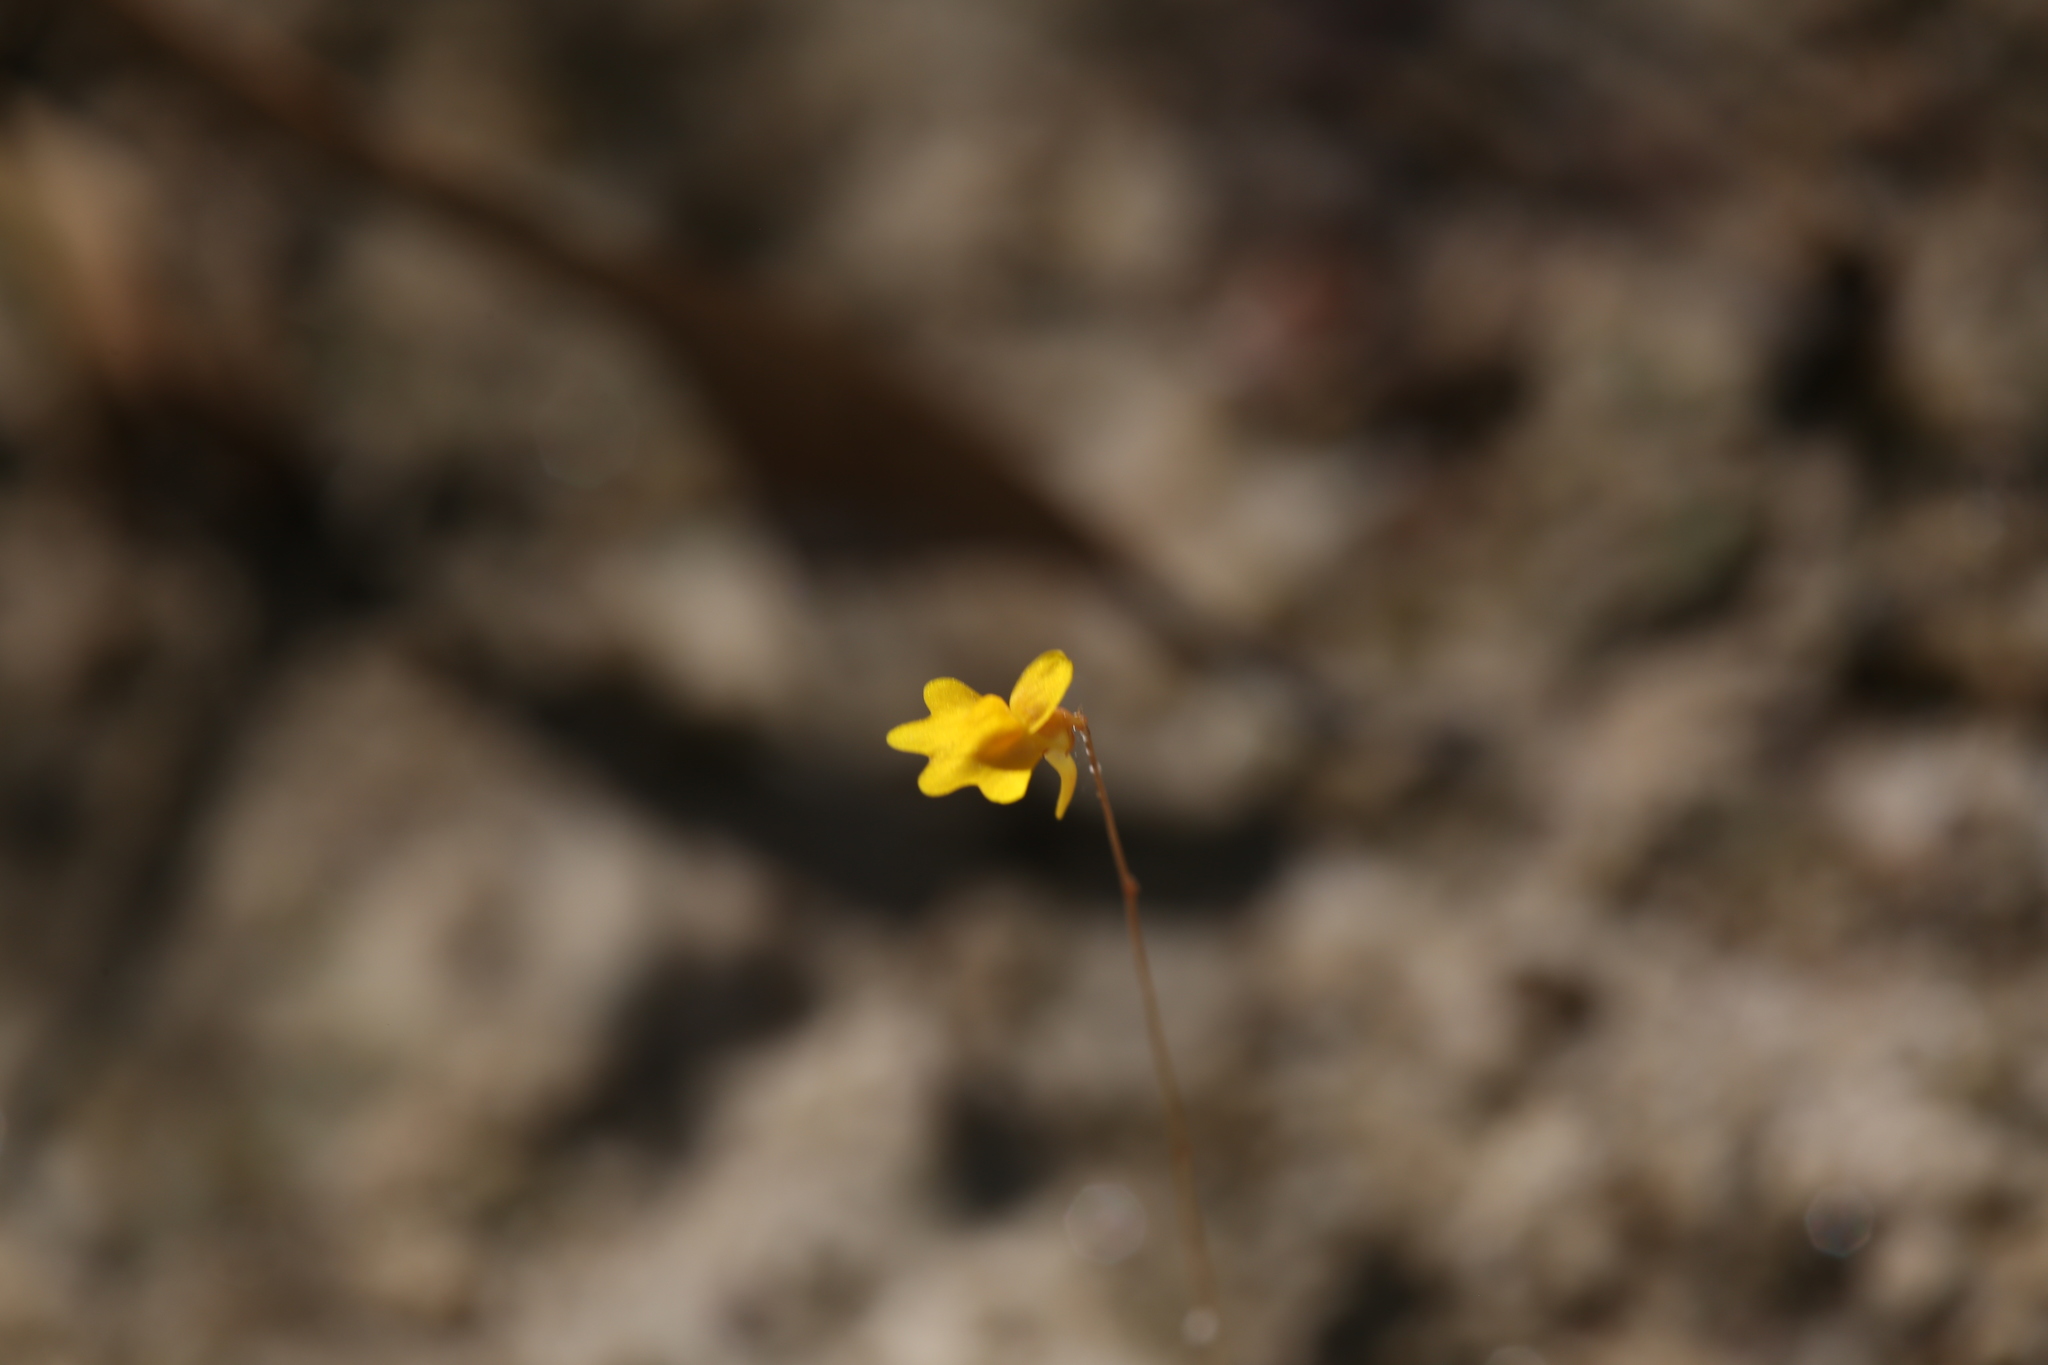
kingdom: Plantae
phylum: Tracheophyta
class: Magnoliopsida
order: Lamiales
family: Lentibulariaceae
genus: Utricularia
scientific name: Utricularia chrysantha
